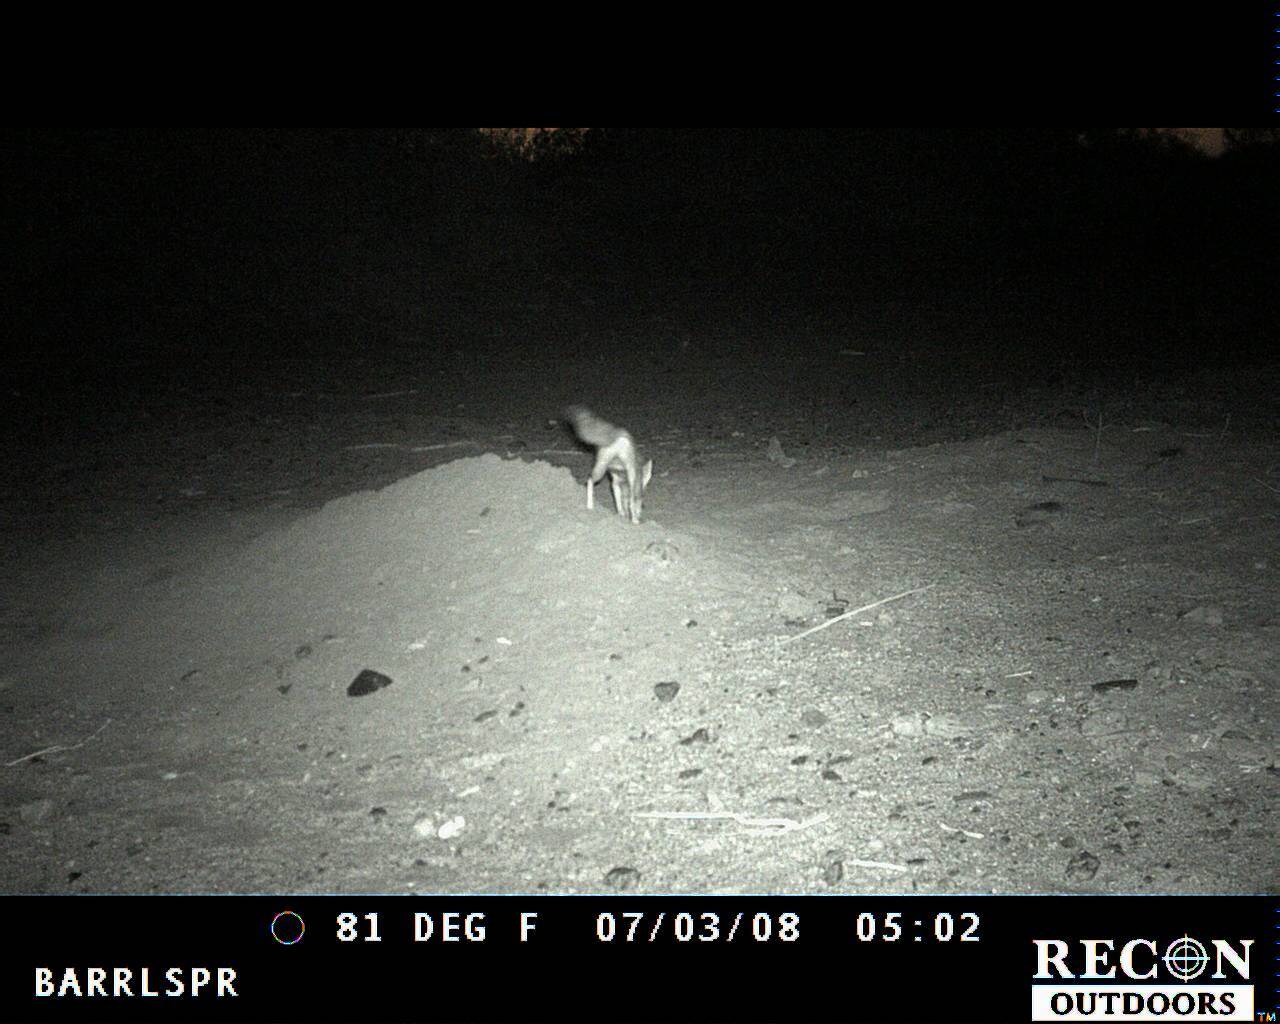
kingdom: Animalia
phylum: Chordata
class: Mammalia
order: Carnivora
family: Canidae
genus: Canis
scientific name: Canis latrans
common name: Coyote
